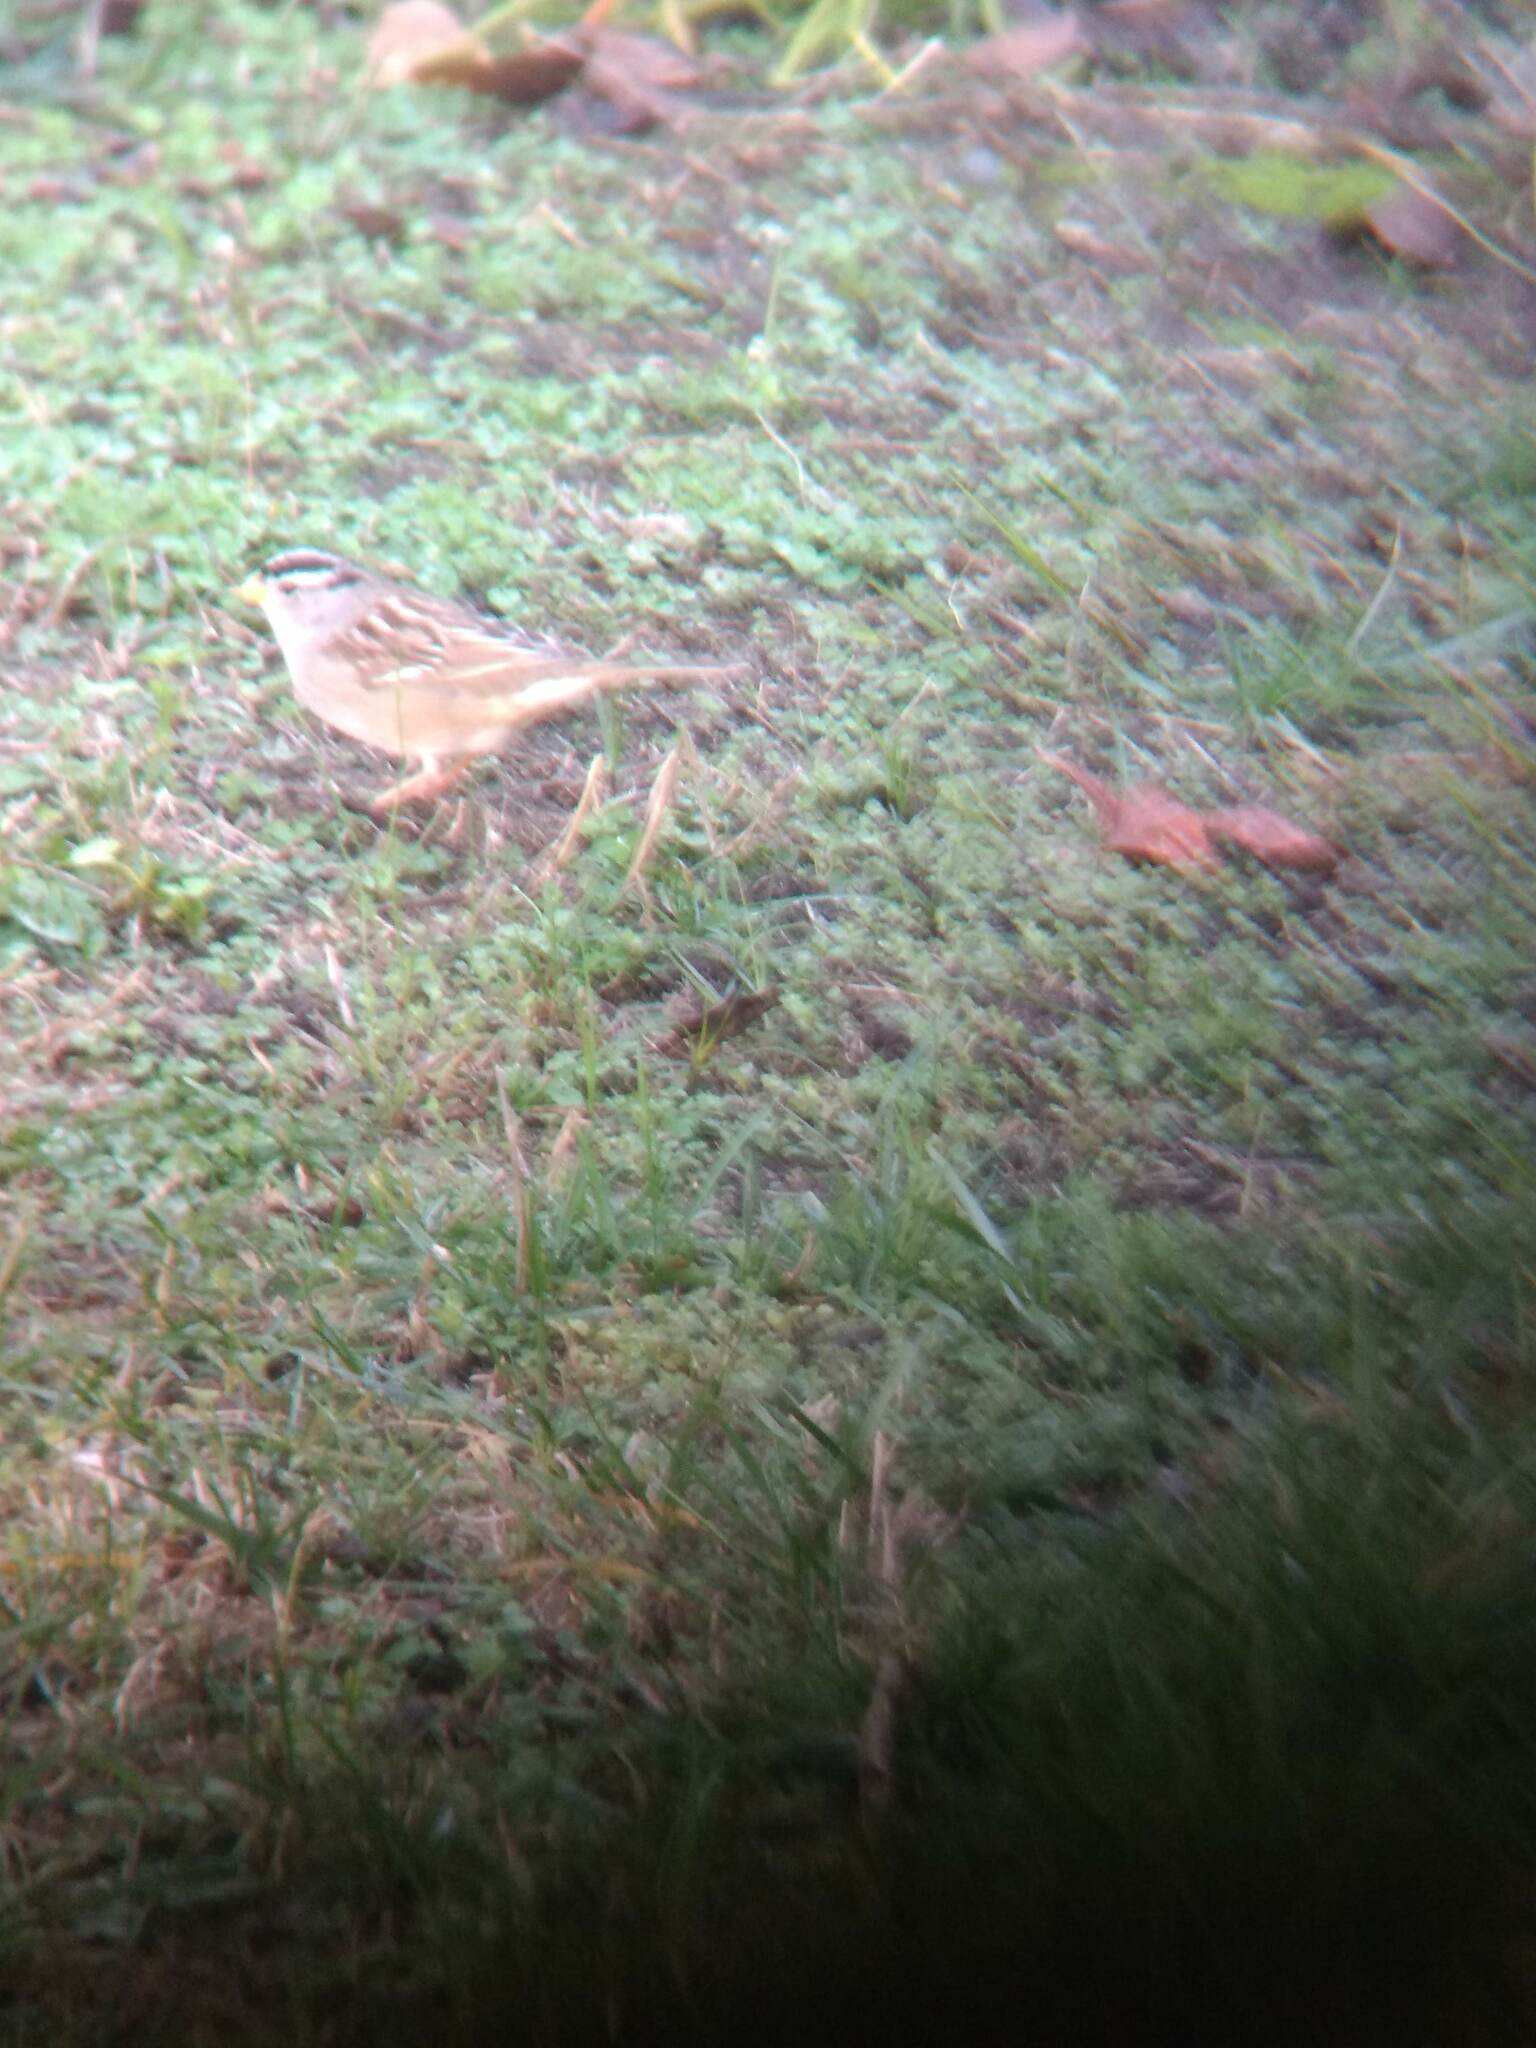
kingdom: Animalia
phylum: Chordata
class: Aves
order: Passeriformes
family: Passerellidae
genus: Zonotrichia
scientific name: Zonotrichia leucophrys
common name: White-crowned sparrow
